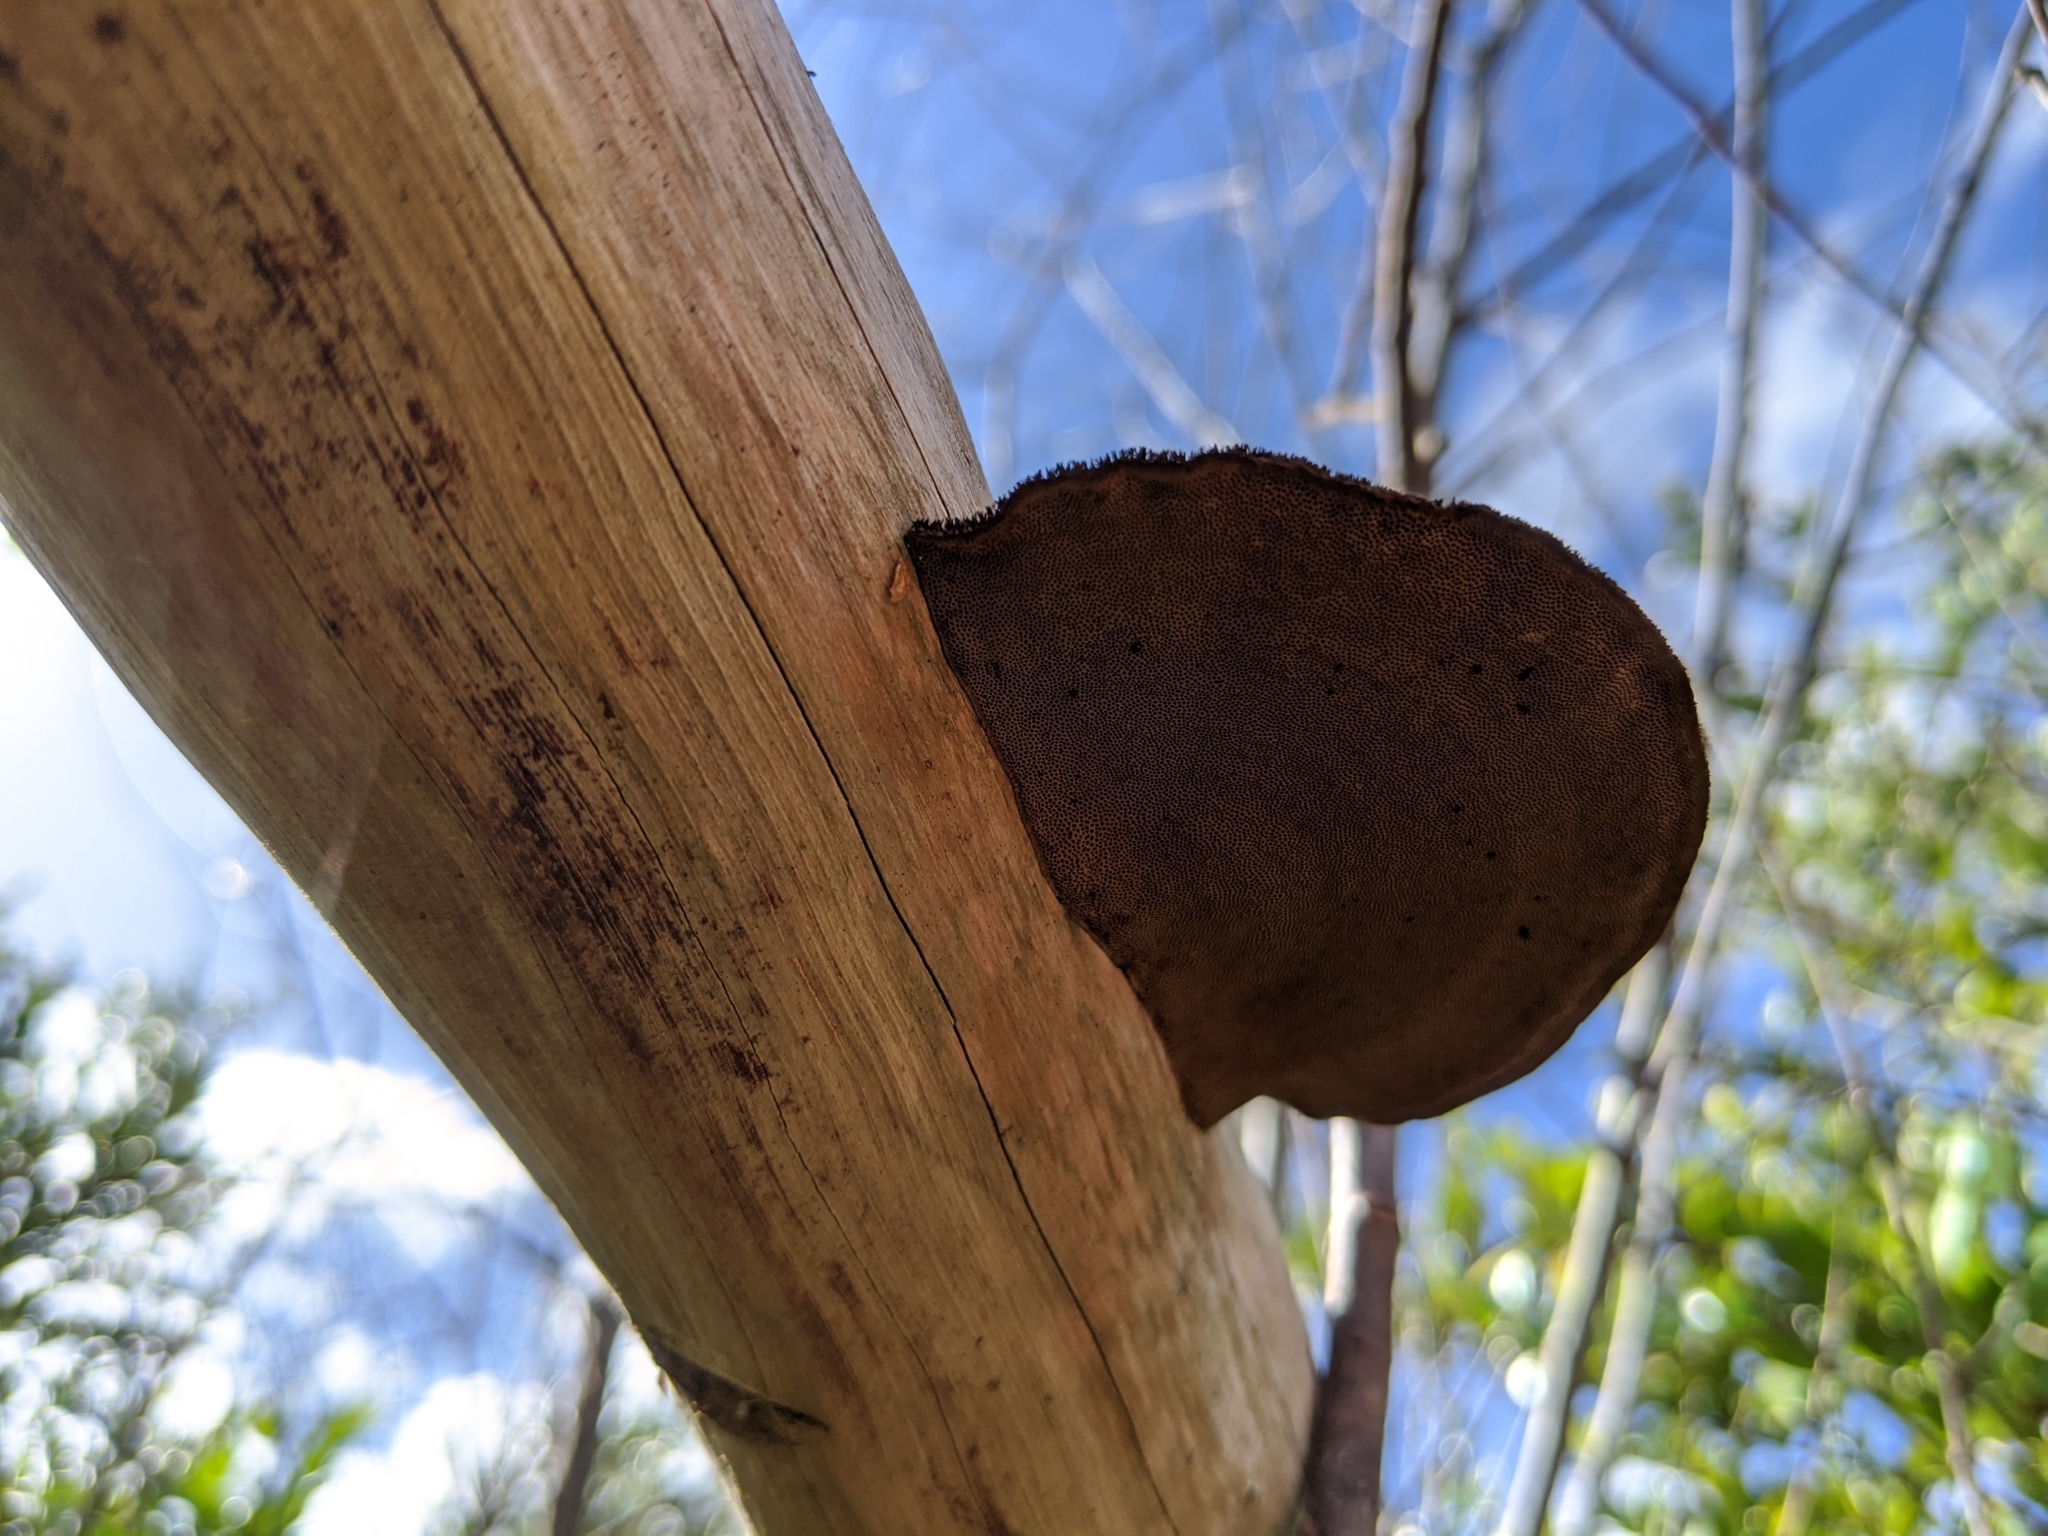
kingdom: Fungi
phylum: Basidiomycota
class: Agaricomycetes
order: Polyporales
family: Cerrenaceae
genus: Cerrena
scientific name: Cerrena hydnoides
